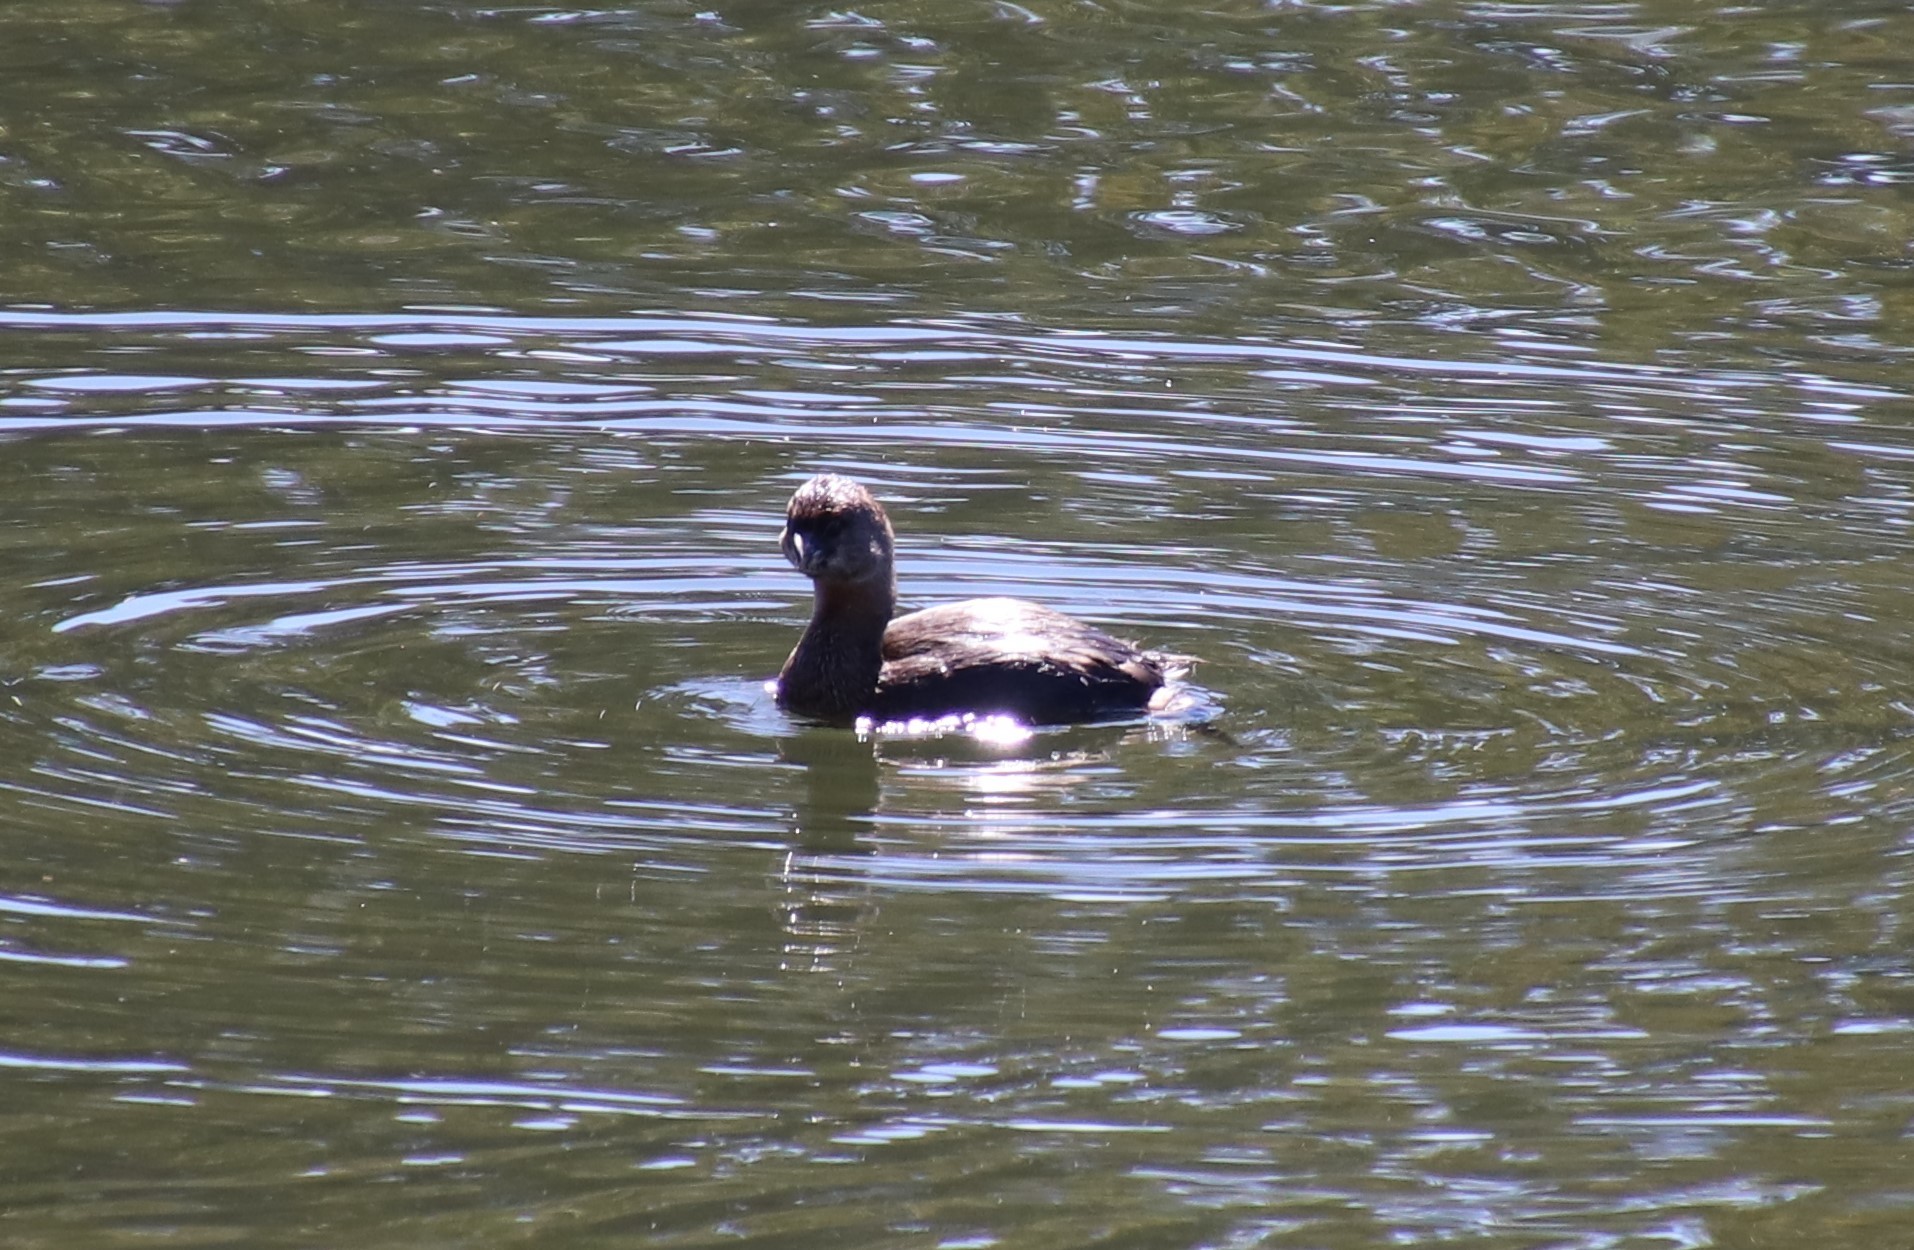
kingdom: Animalia
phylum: Chordata
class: Aves
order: Podicipediformes
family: Podicipedidae
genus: Podilymbus
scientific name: Podilymbus podiceps
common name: Pied-billed grebe
